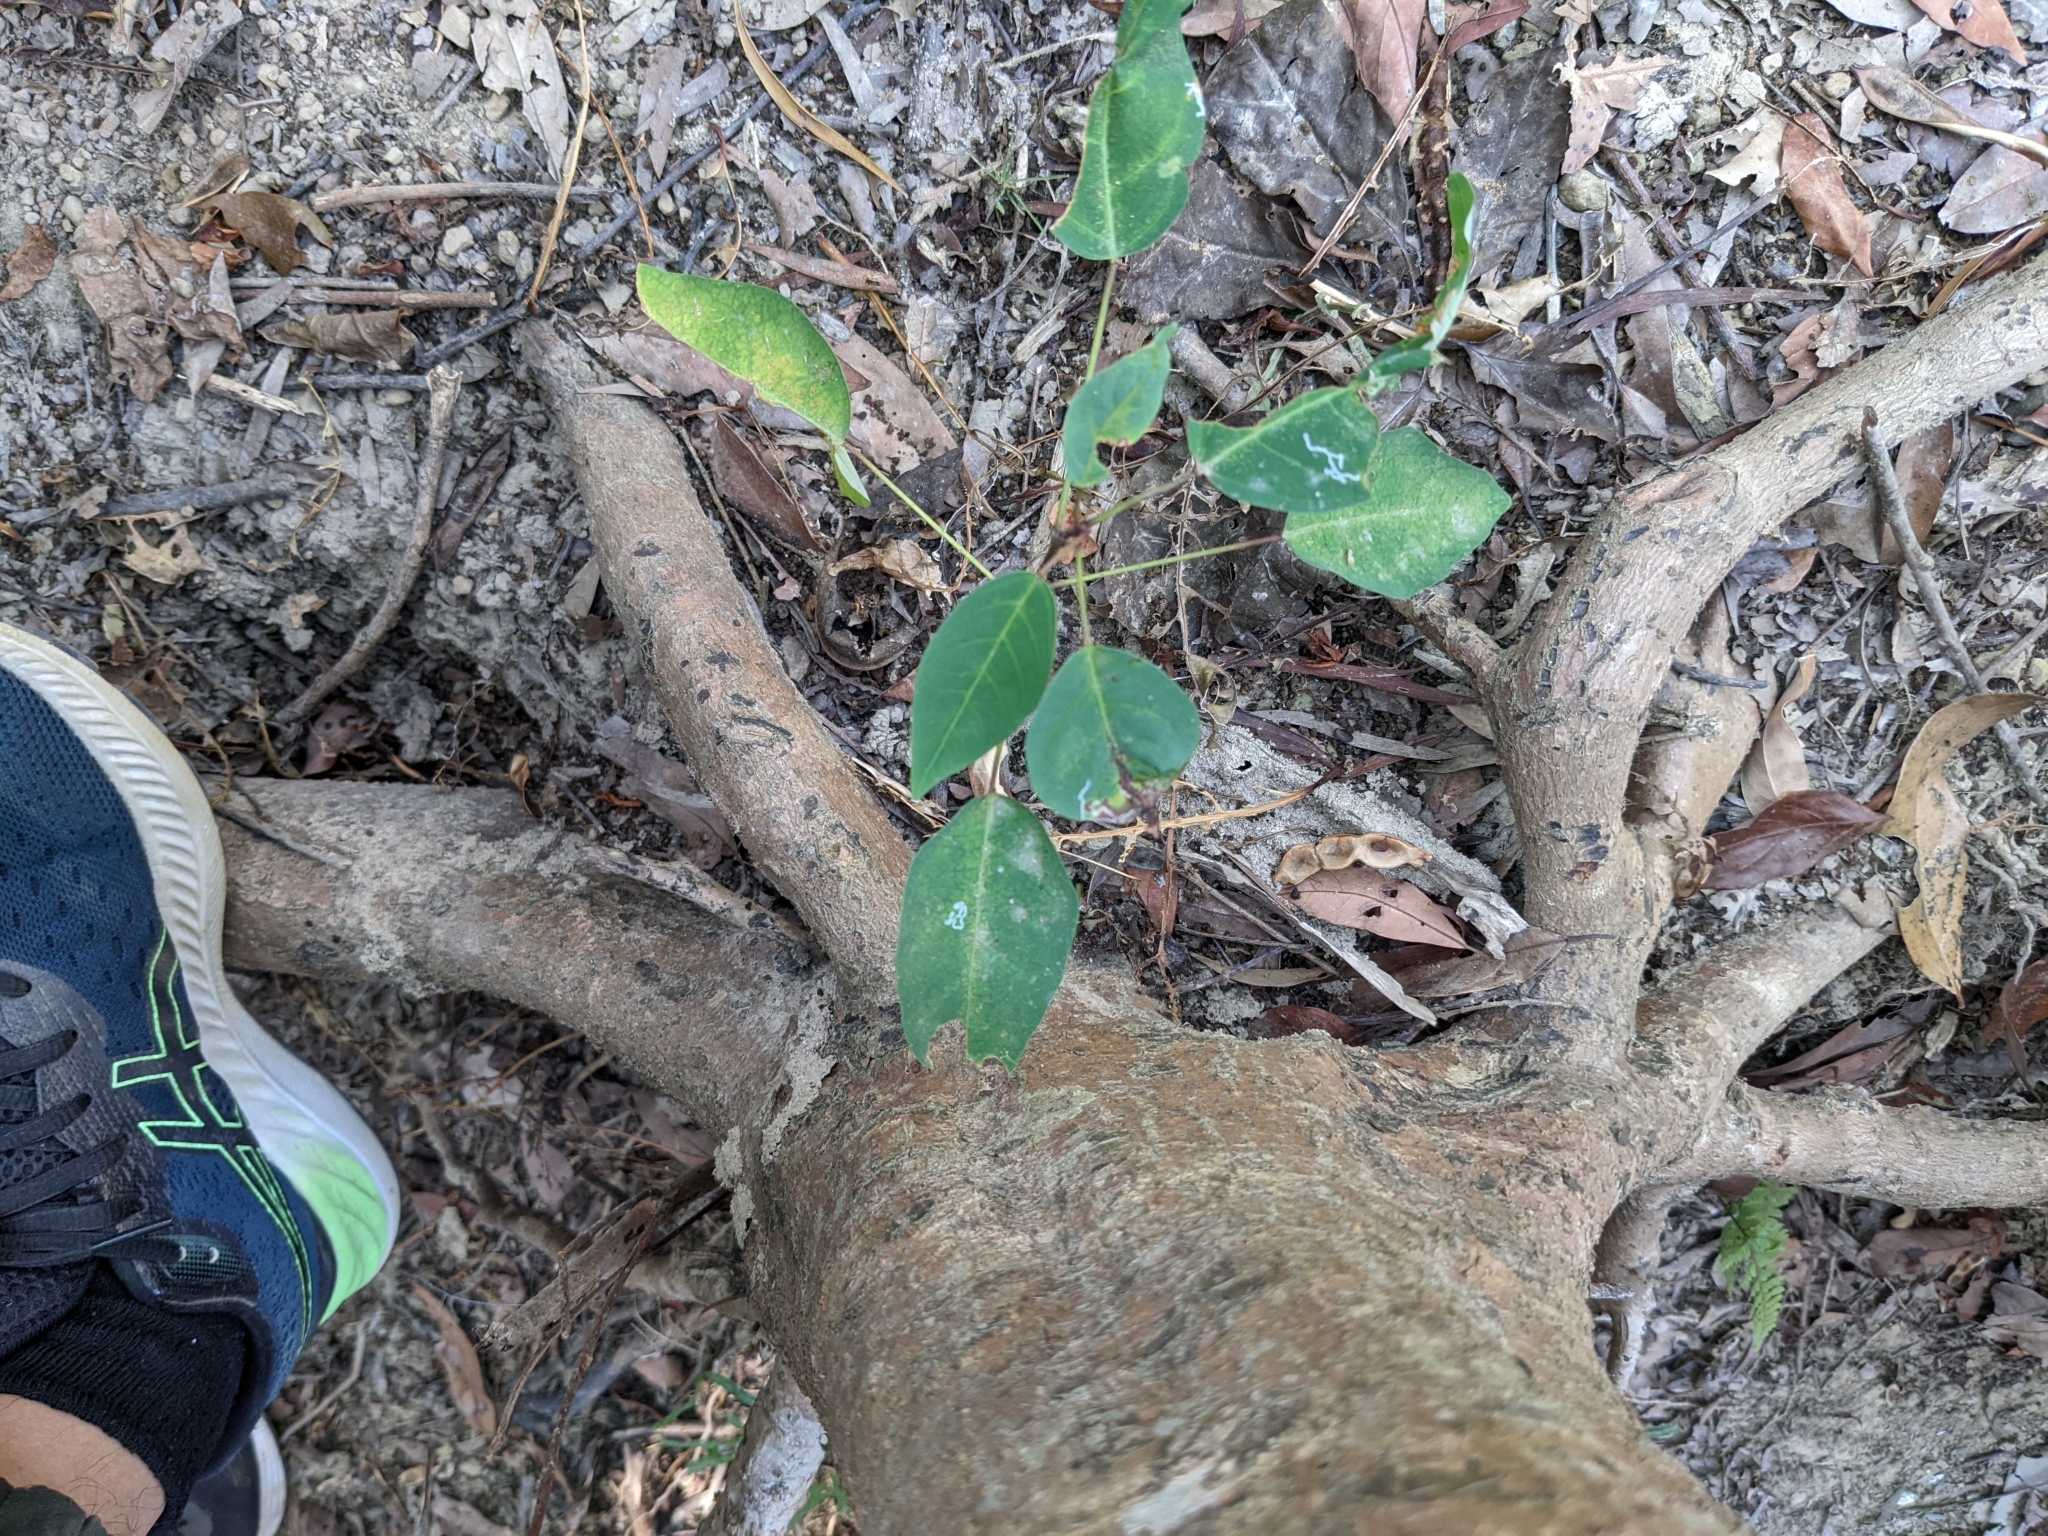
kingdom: Plantae
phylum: Tracheophyta
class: Magnoliopsida
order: Malpighiales
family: Euphorbiaceae
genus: Triadica
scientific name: Triadica cochinchinensis
